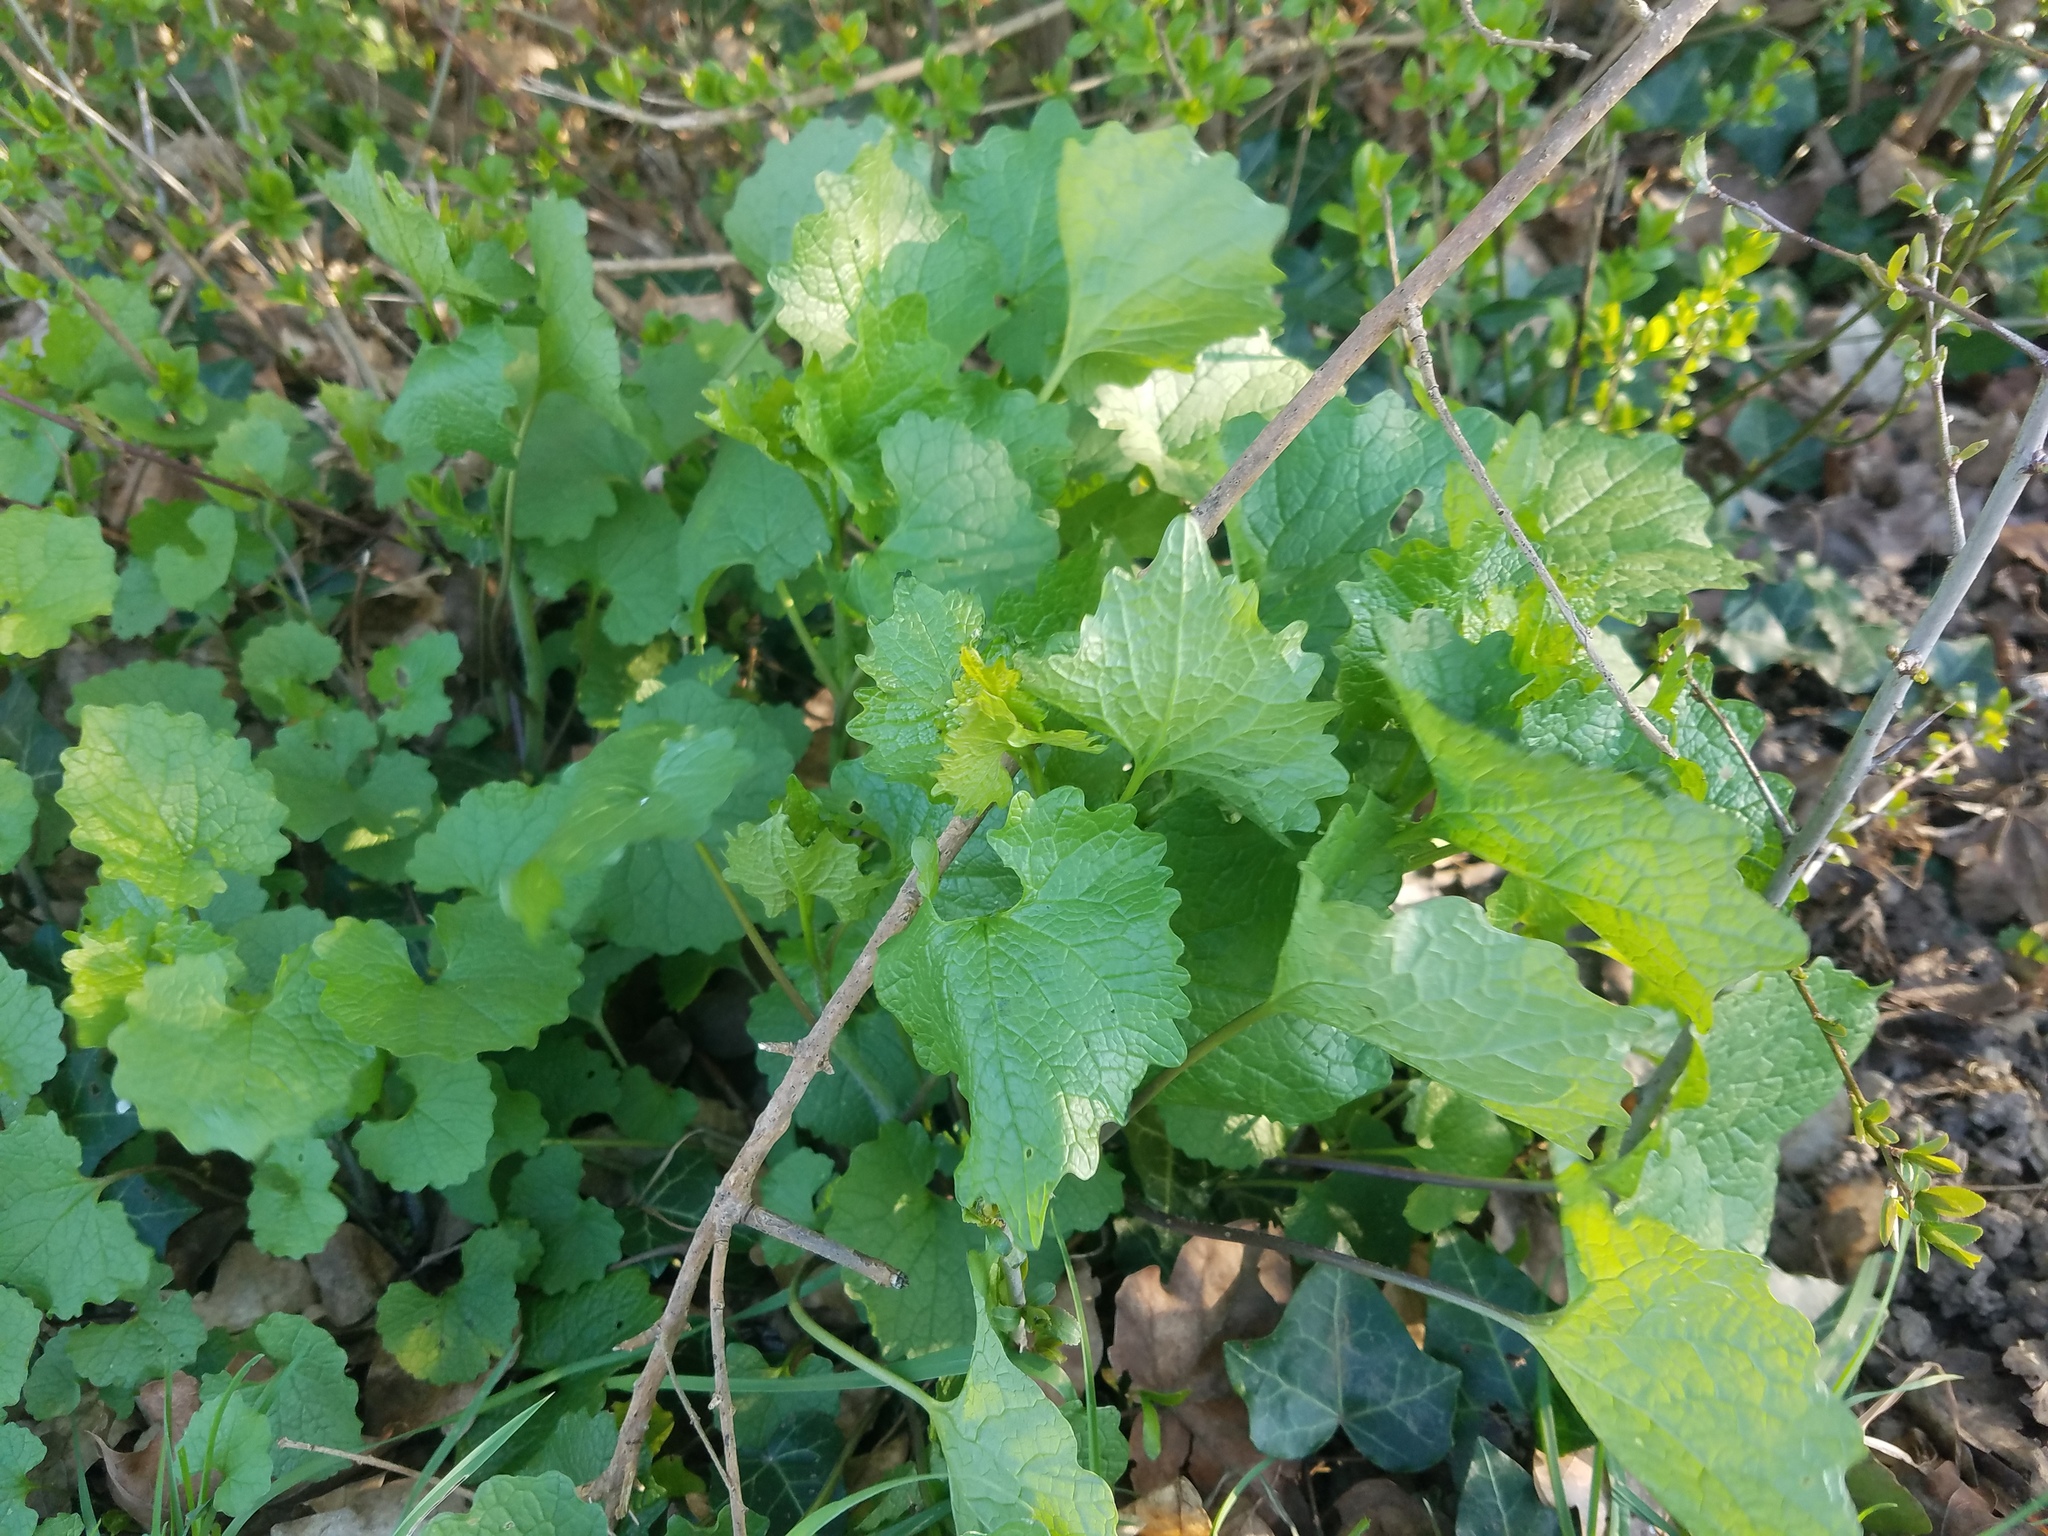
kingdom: Plantae
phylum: Tracheophyta
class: Magnoliopsida
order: Brassicales
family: Brassicaceae
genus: Alliaria
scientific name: Alliaria petiolata
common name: Garlic mustard
